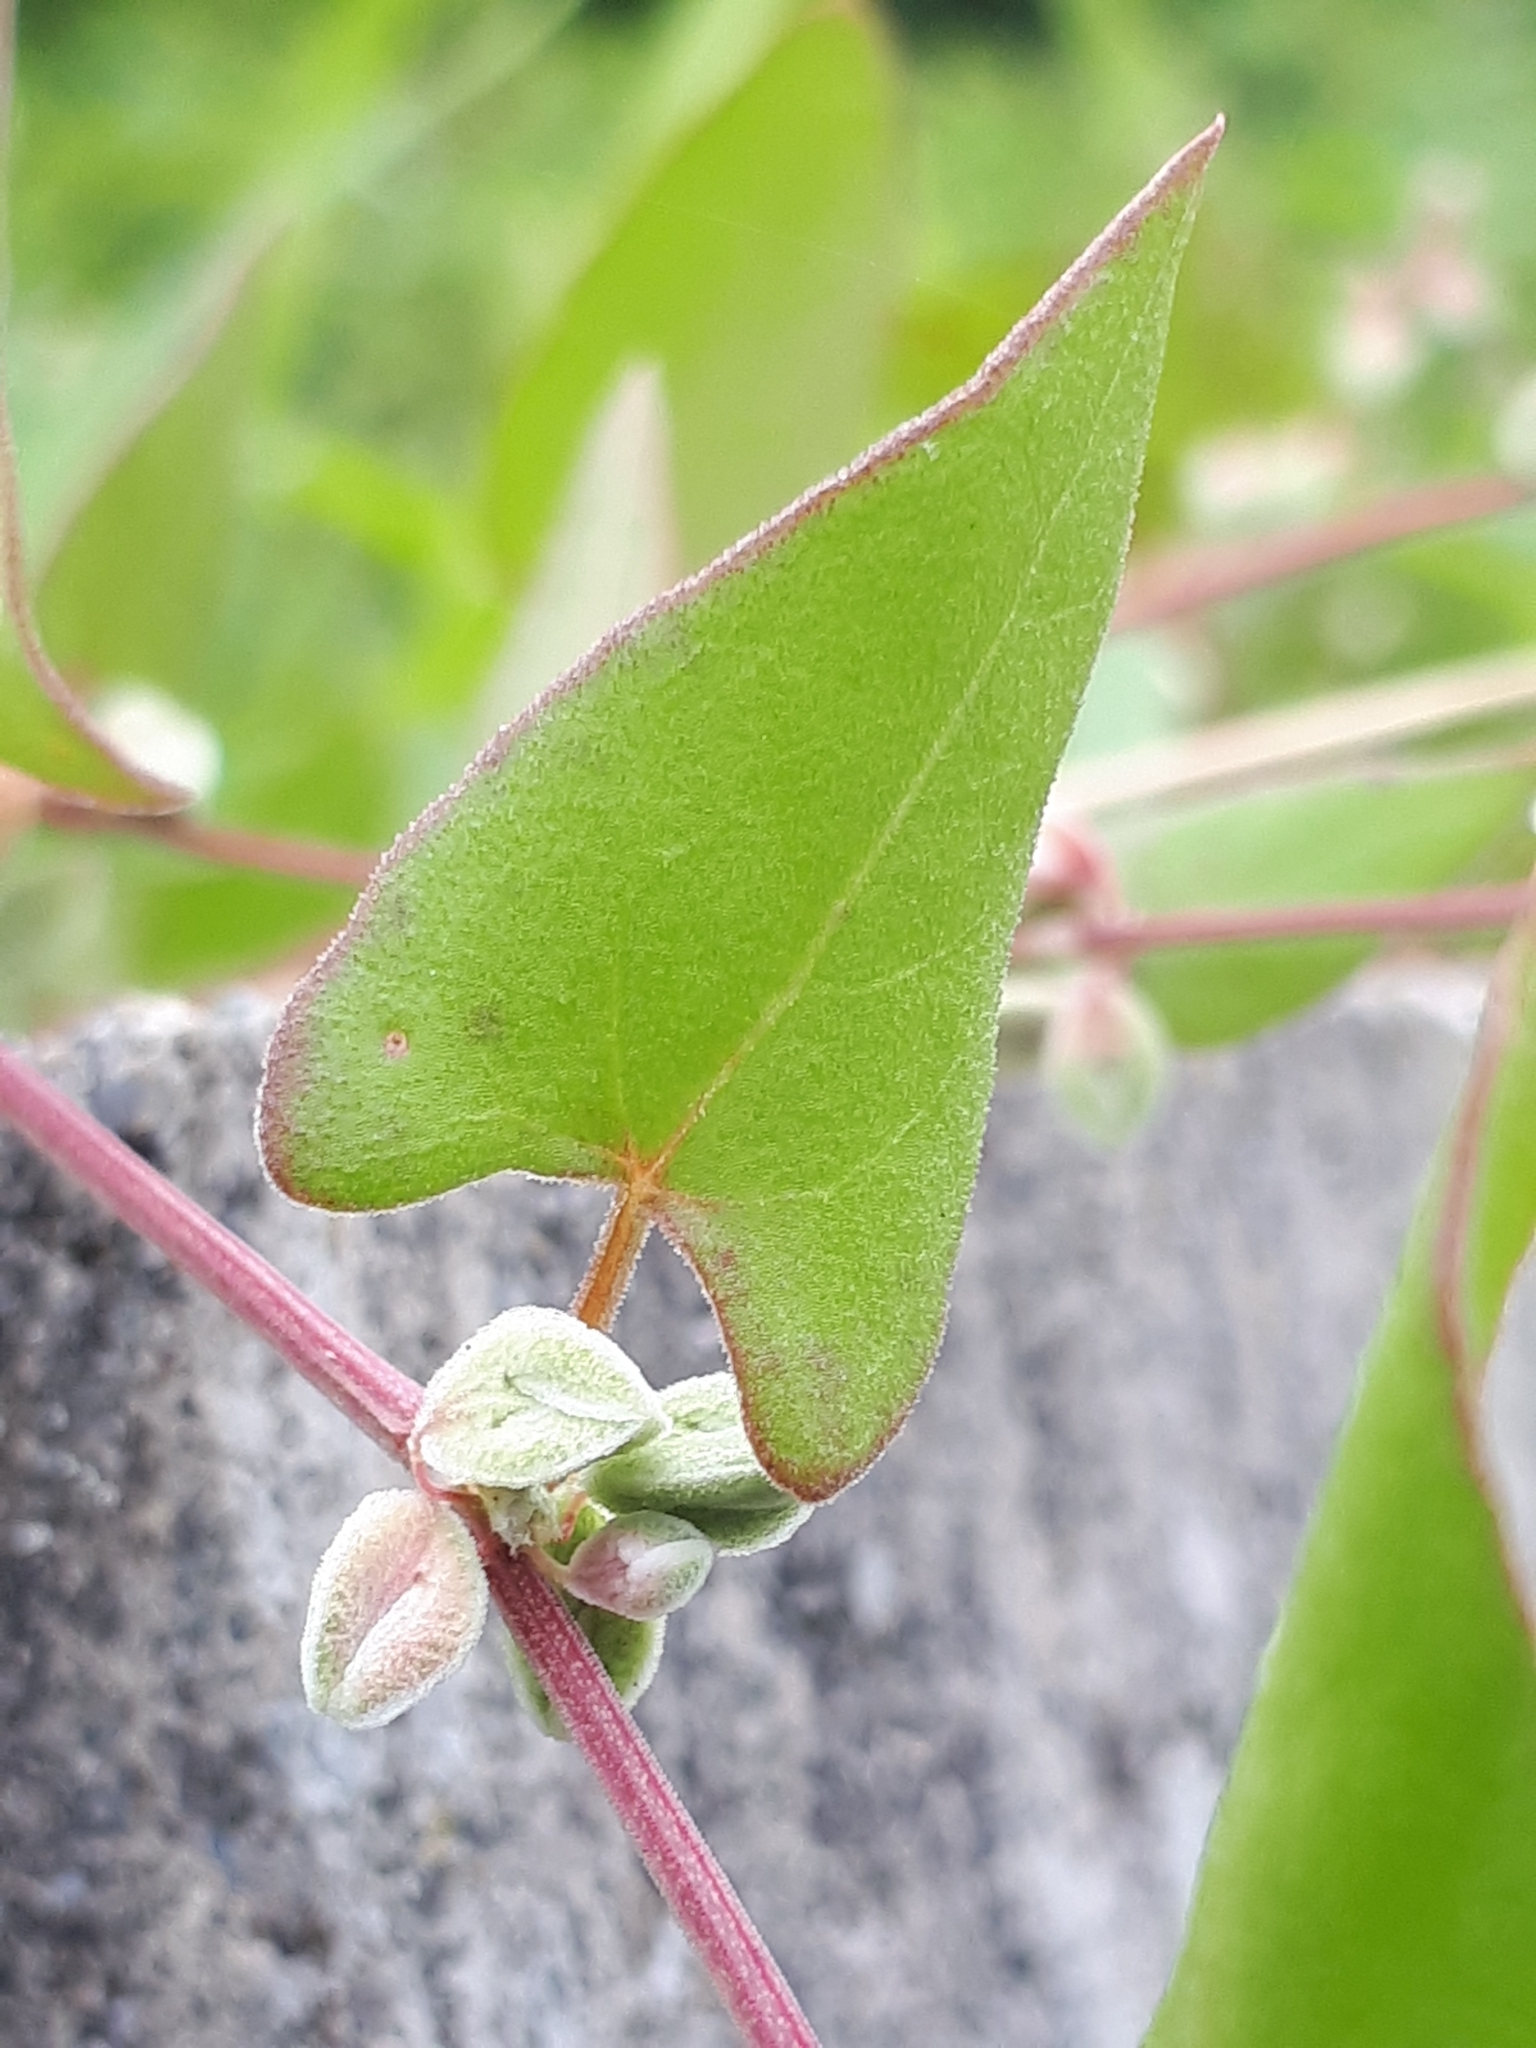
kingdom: Plantae
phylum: Tracheophyta
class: Magnoliopsida
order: Caryophyllales
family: Polygonaceae
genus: Fallopia
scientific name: Fallopia convolvulus
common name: Black bindweed
